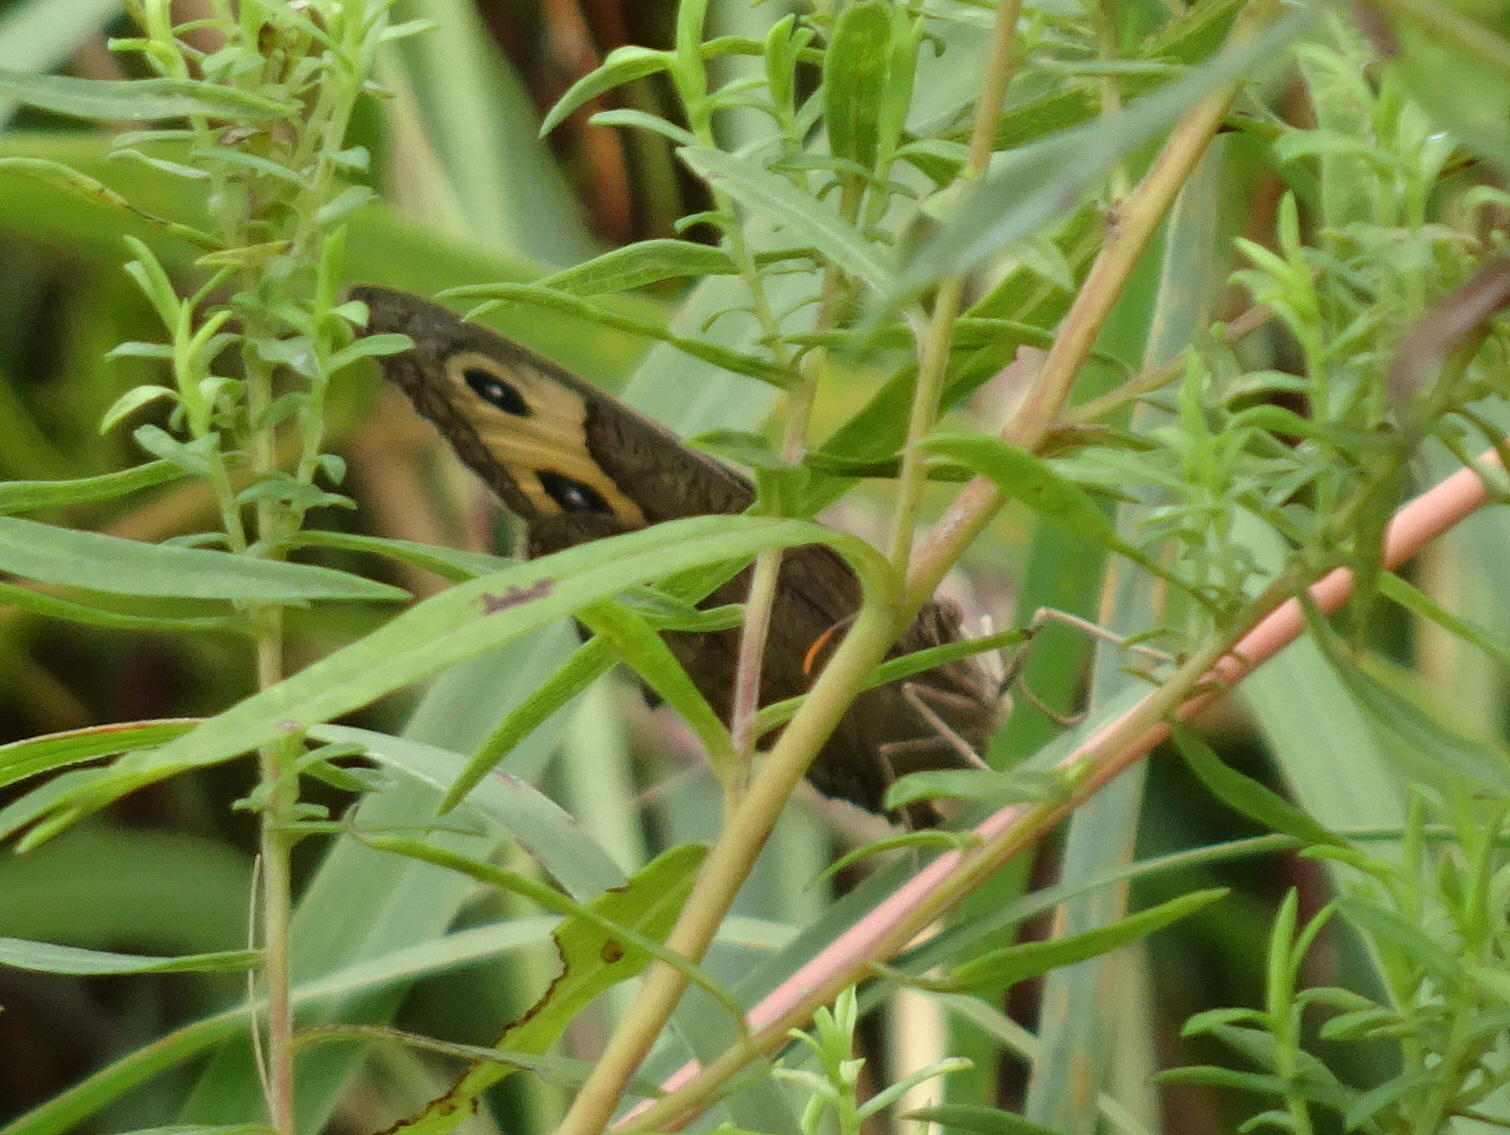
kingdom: Animalia
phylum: Arthropoda
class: Insecta
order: Lepidoptera
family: Nymphalidae
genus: Cercyonis
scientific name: Cercyonis pegala
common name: Common wood-nymph
